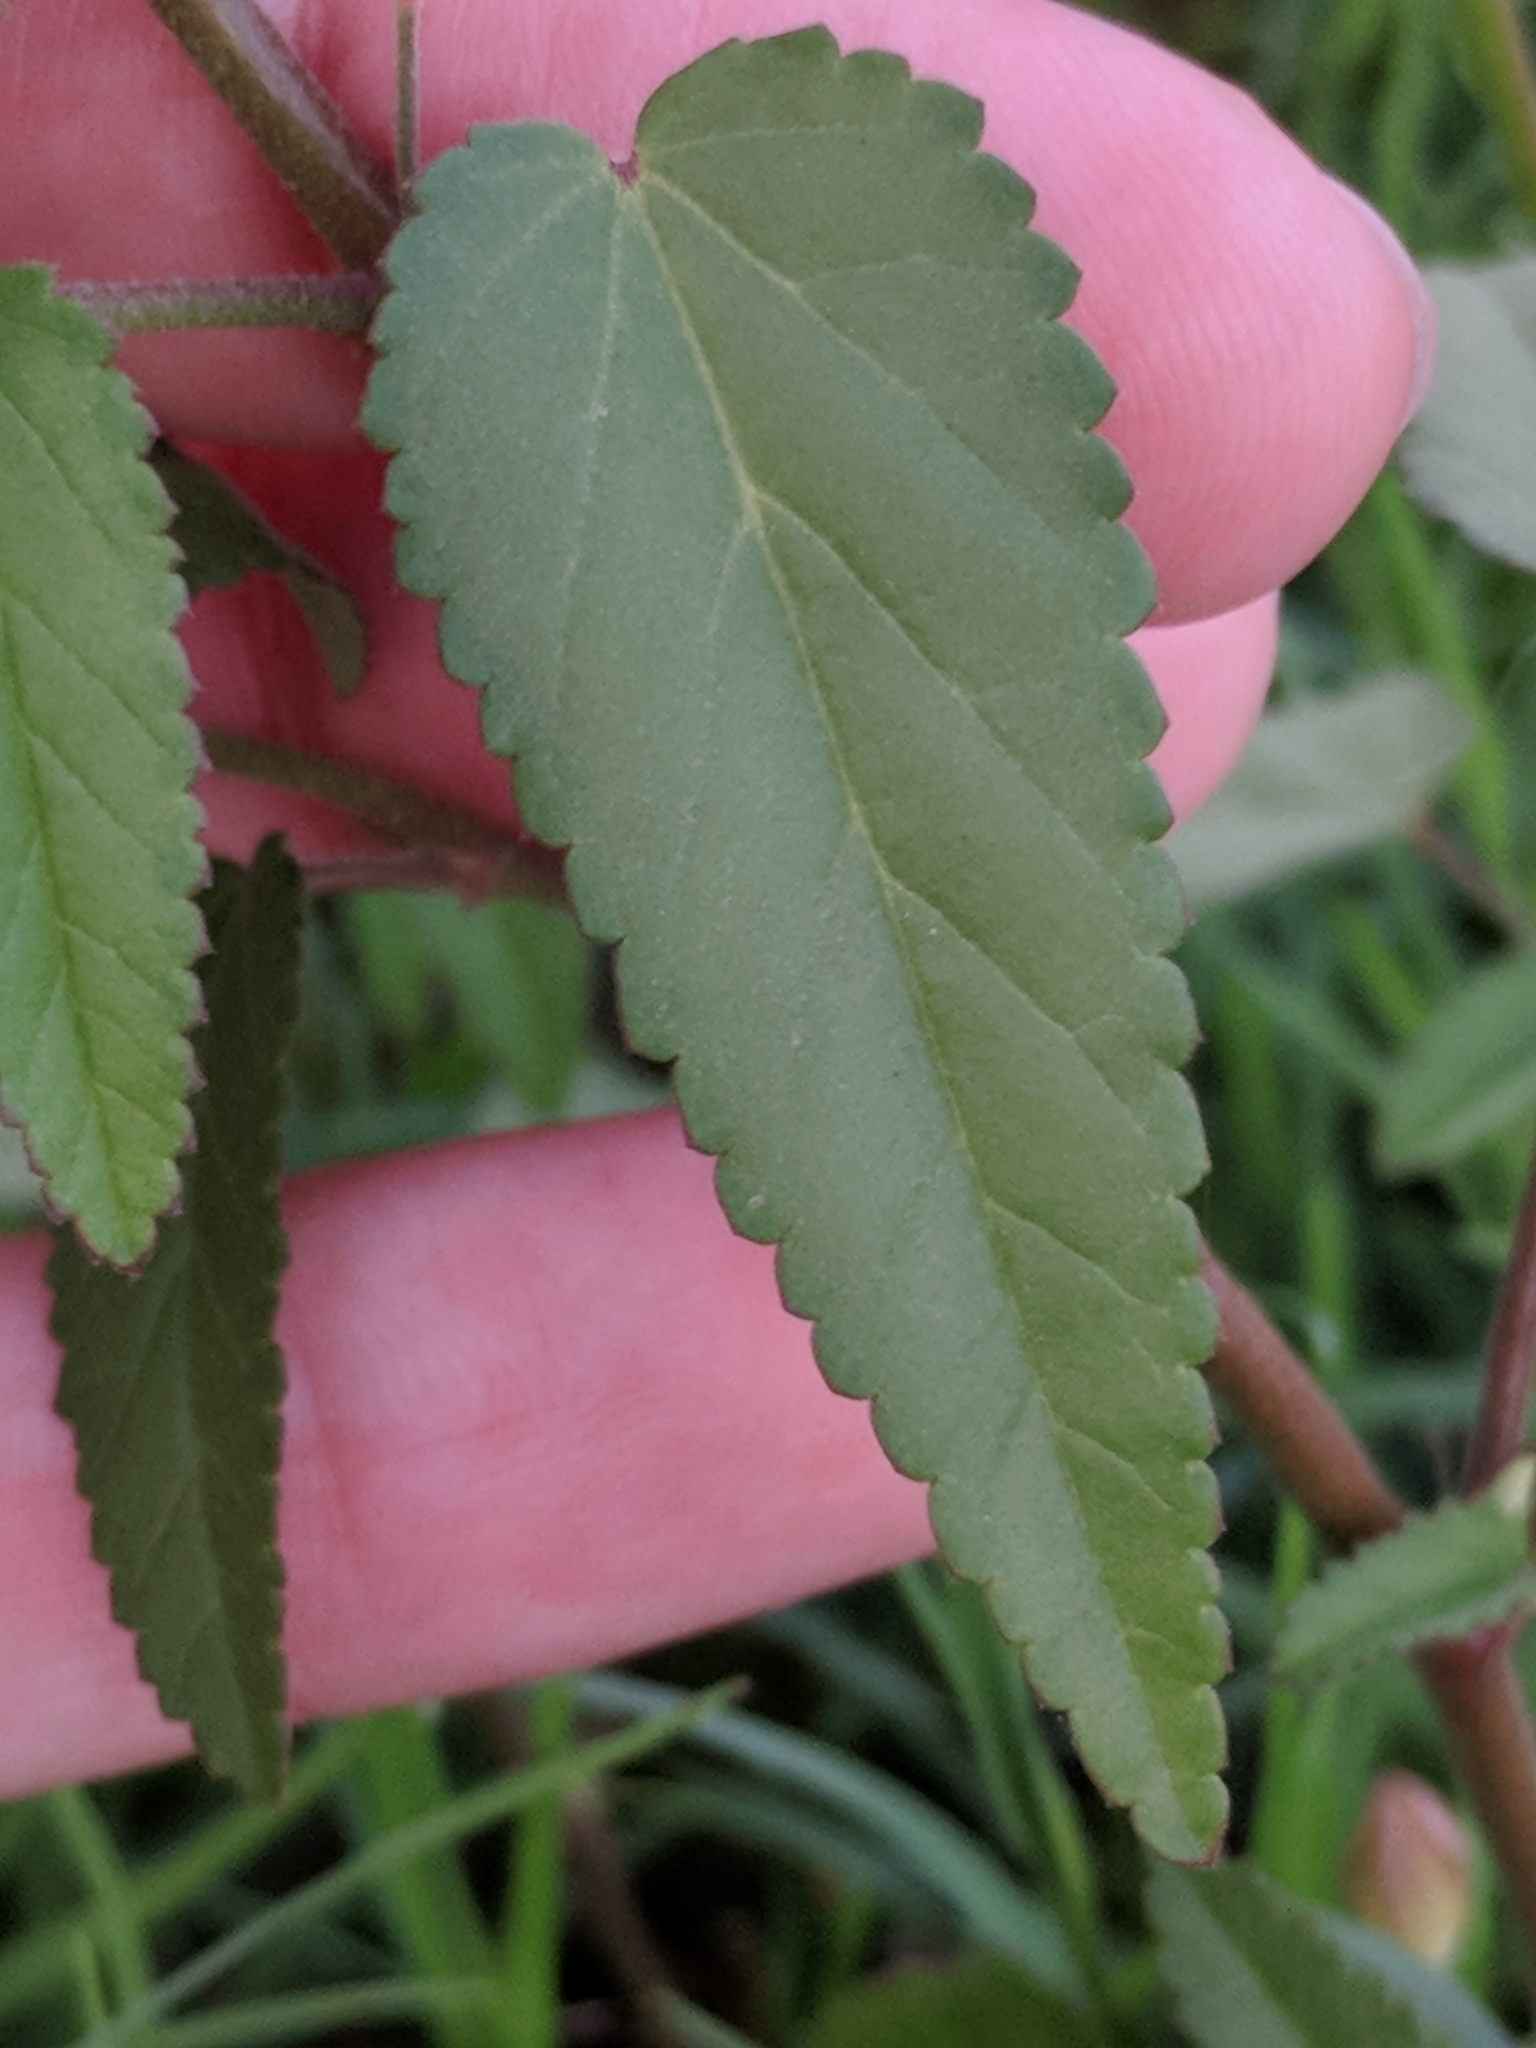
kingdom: Plantae
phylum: Tracheophyta
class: Magnoliopsida
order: Malvales
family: Malvaceae
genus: Sida
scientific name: Sida spinosa
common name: Prickly fanpetals
